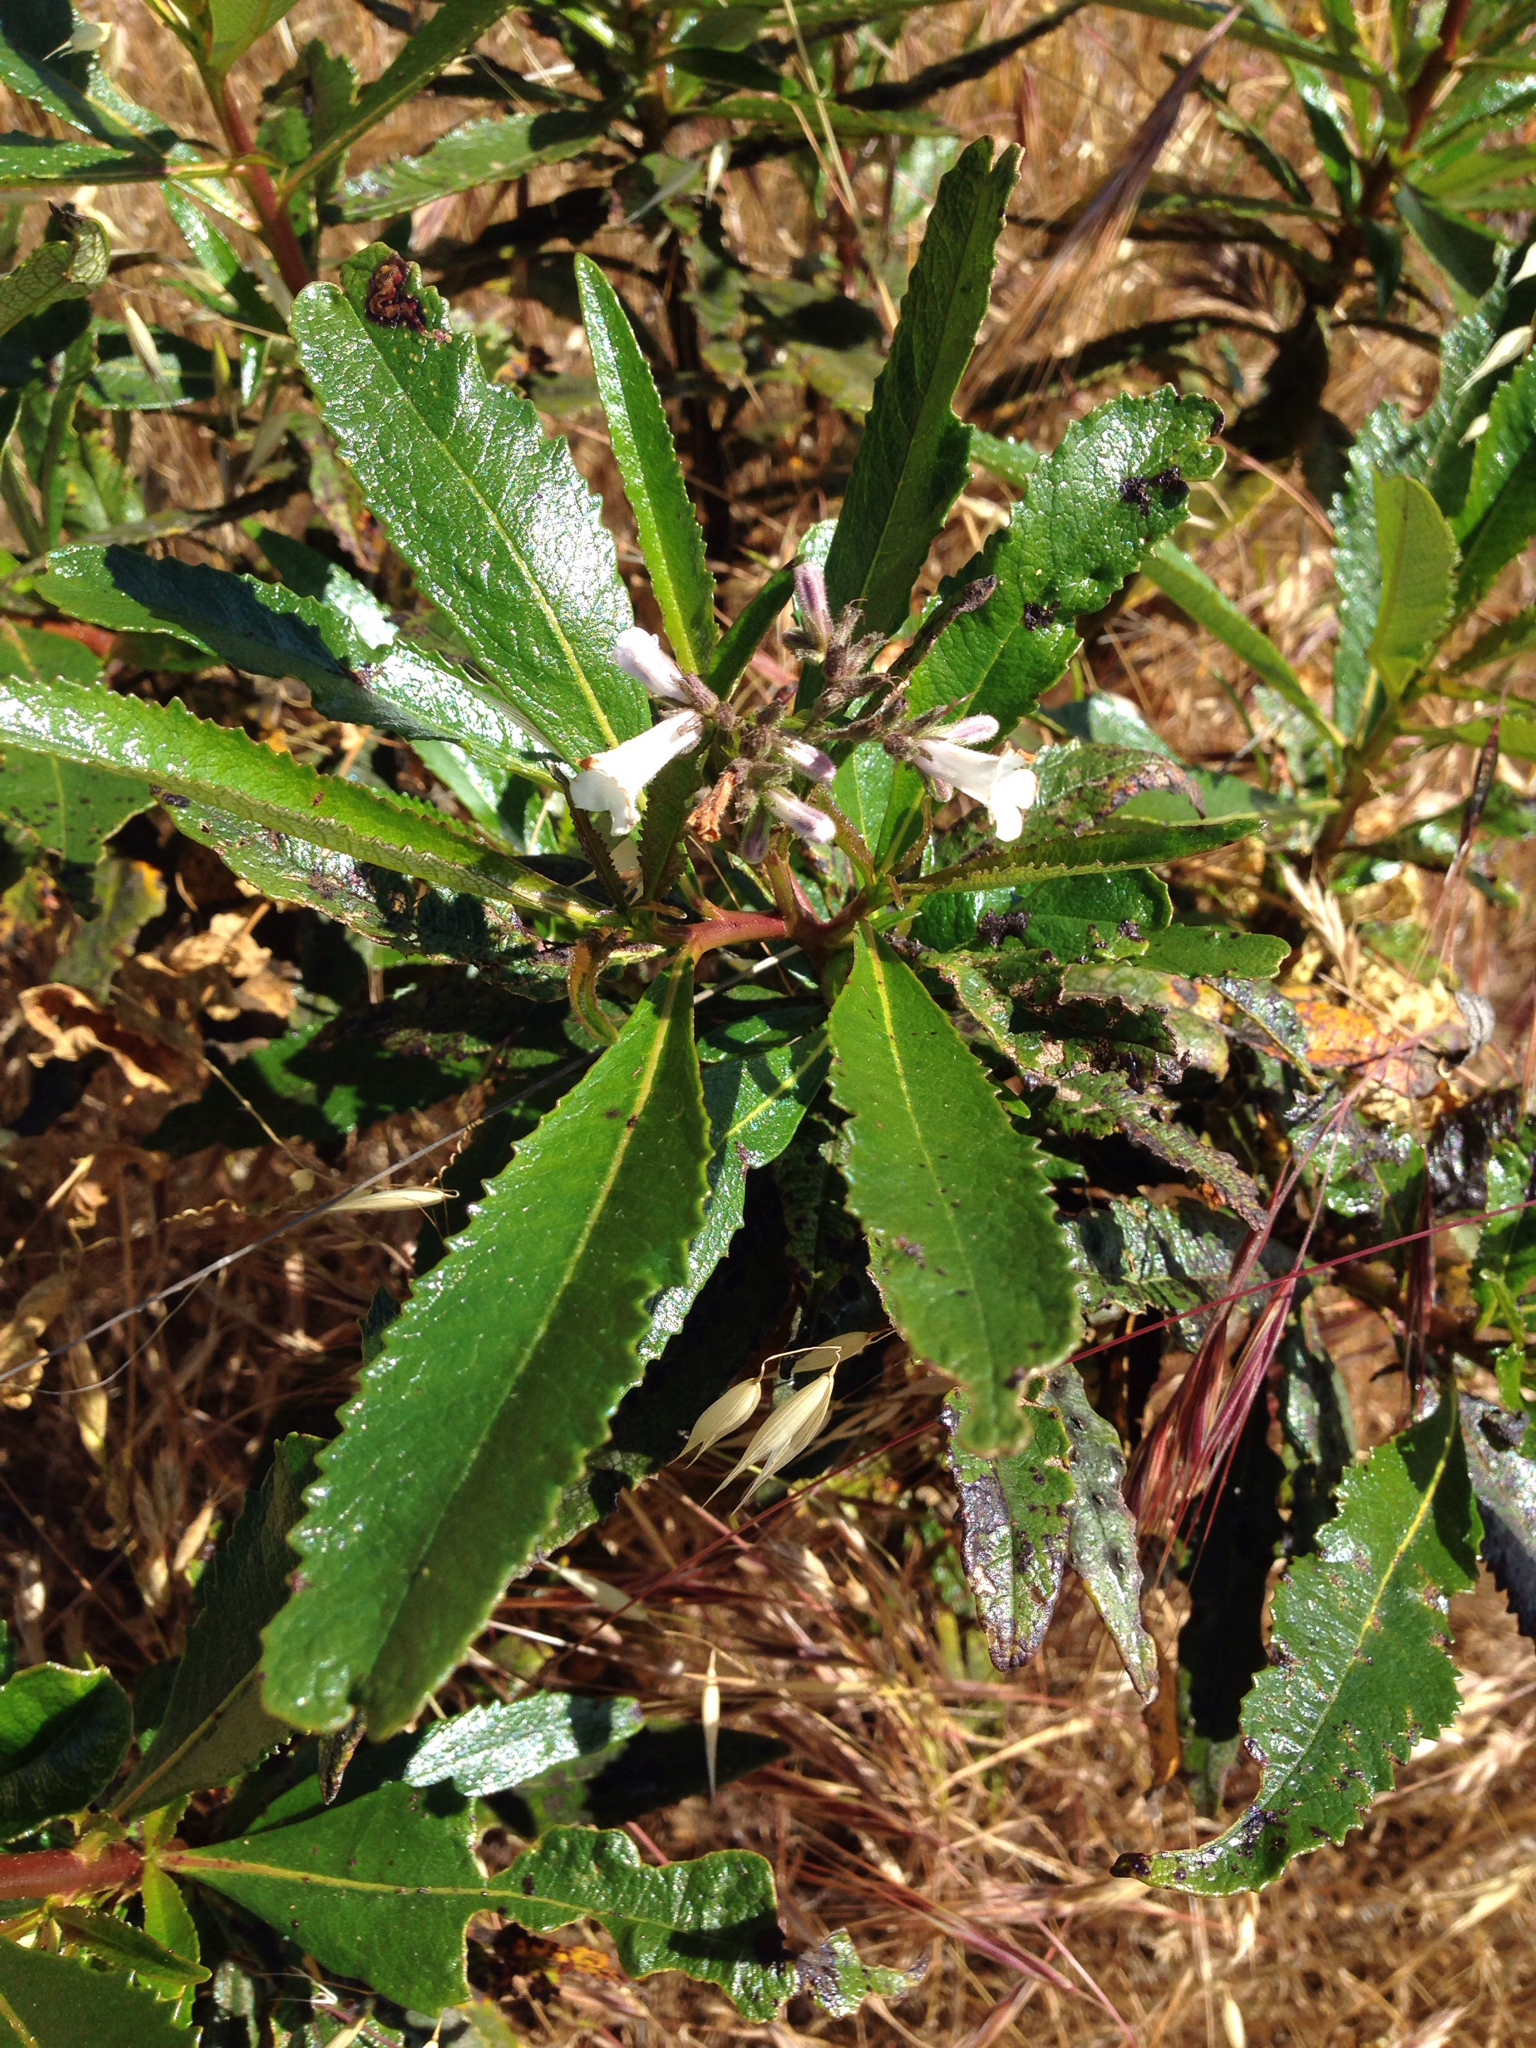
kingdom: Plantae
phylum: Tracheophyta
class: Magnoliopsida
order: Boraginales
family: Namaceae
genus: Eriodictyon
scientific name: Eriodictyon californicum
